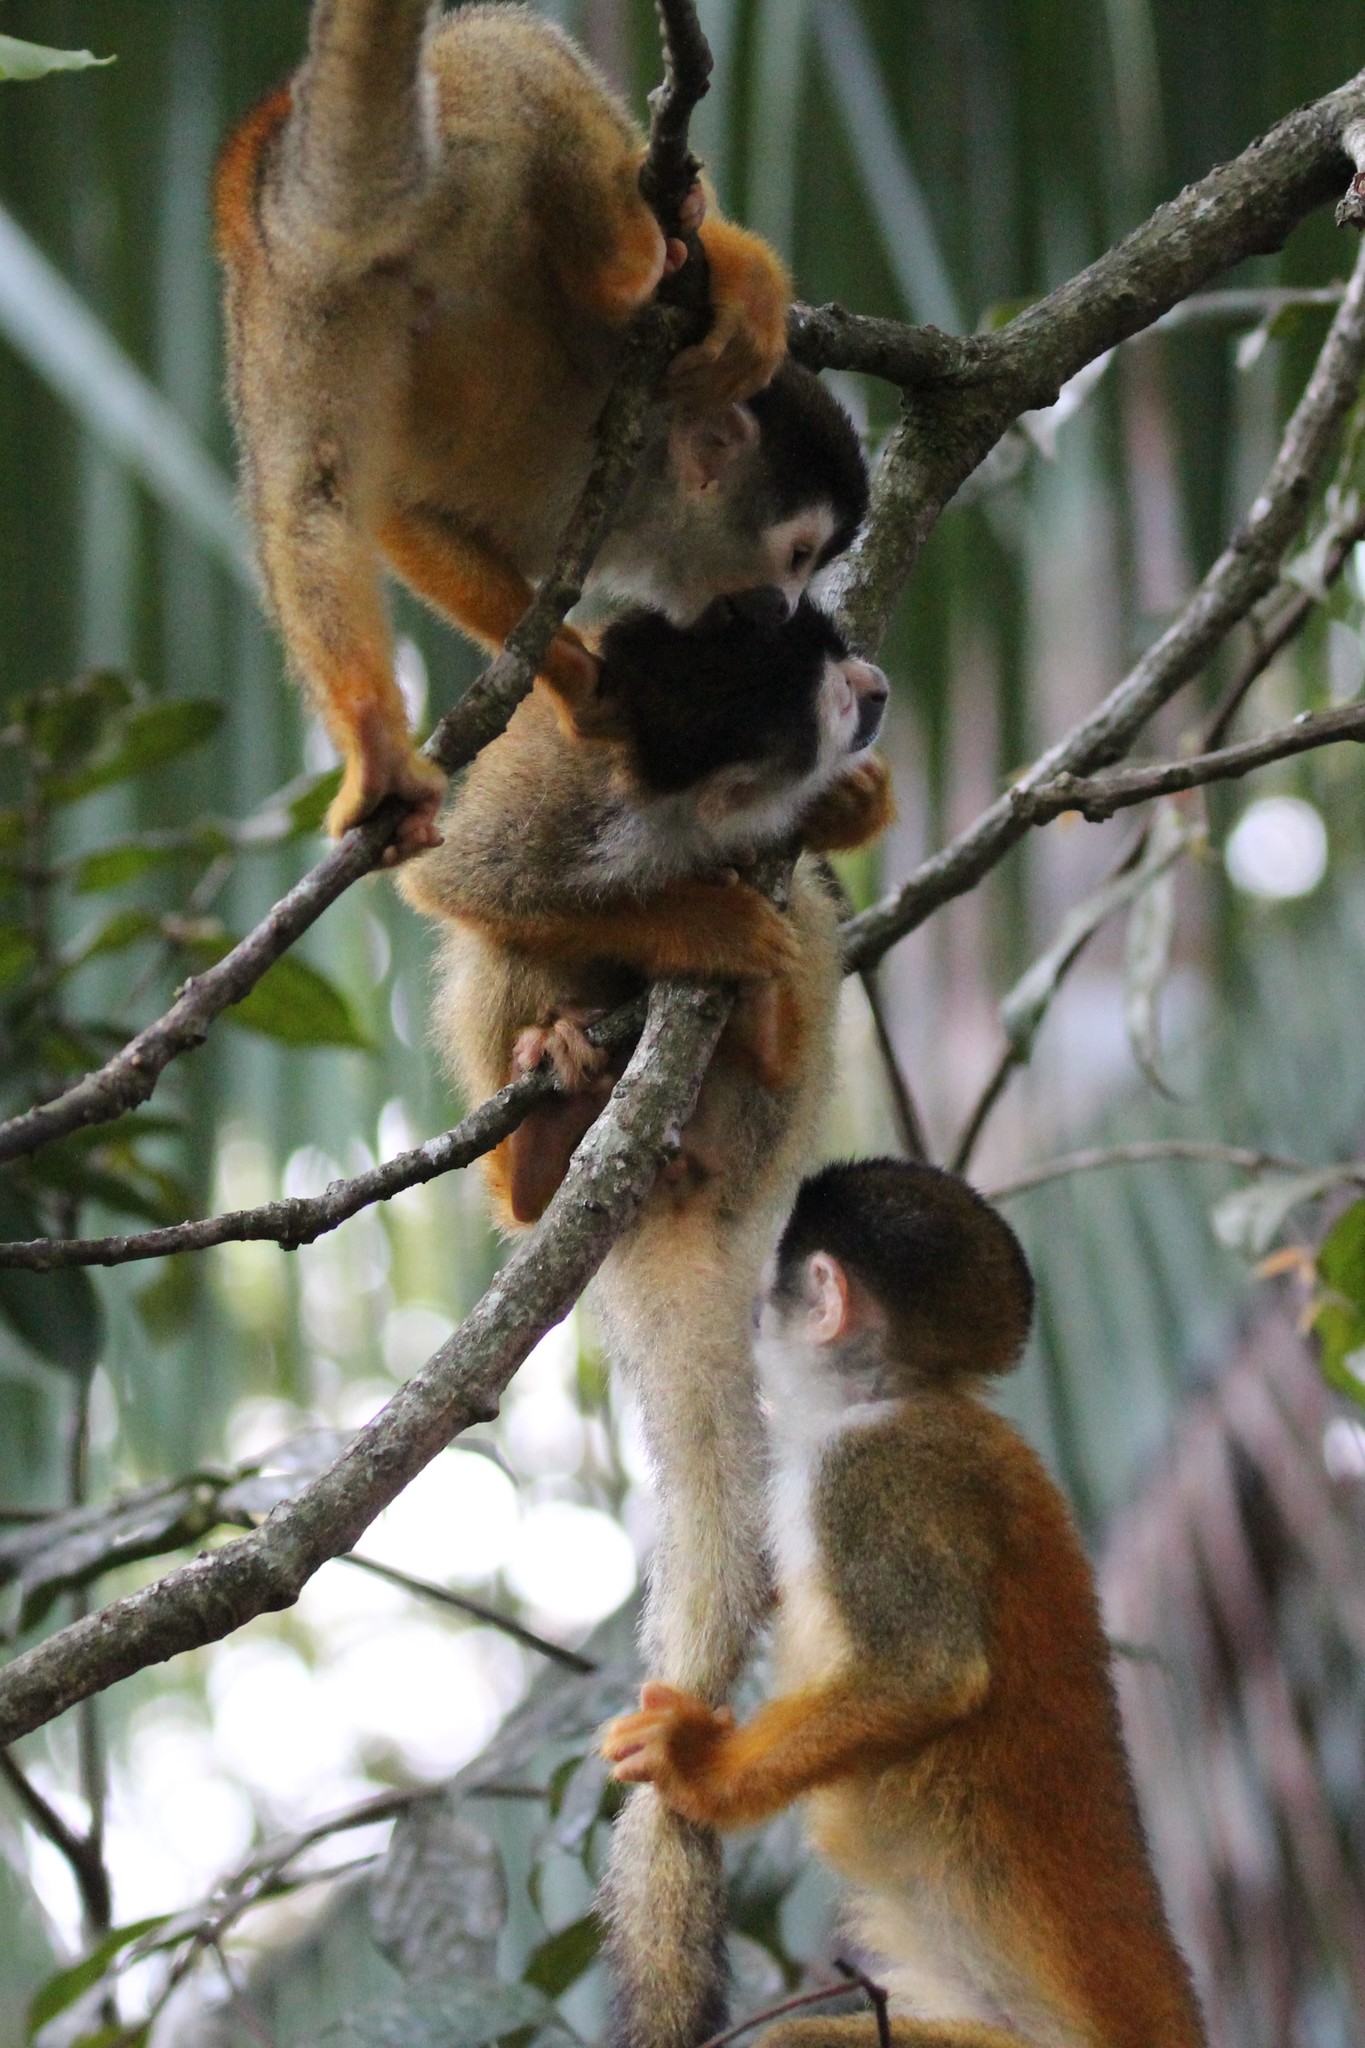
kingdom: Animalia
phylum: Chordata
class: Mammalia
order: Primates
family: Cebidae
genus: Saimiri
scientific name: Saimiri oerstedii
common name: Central american squirrel monkey
